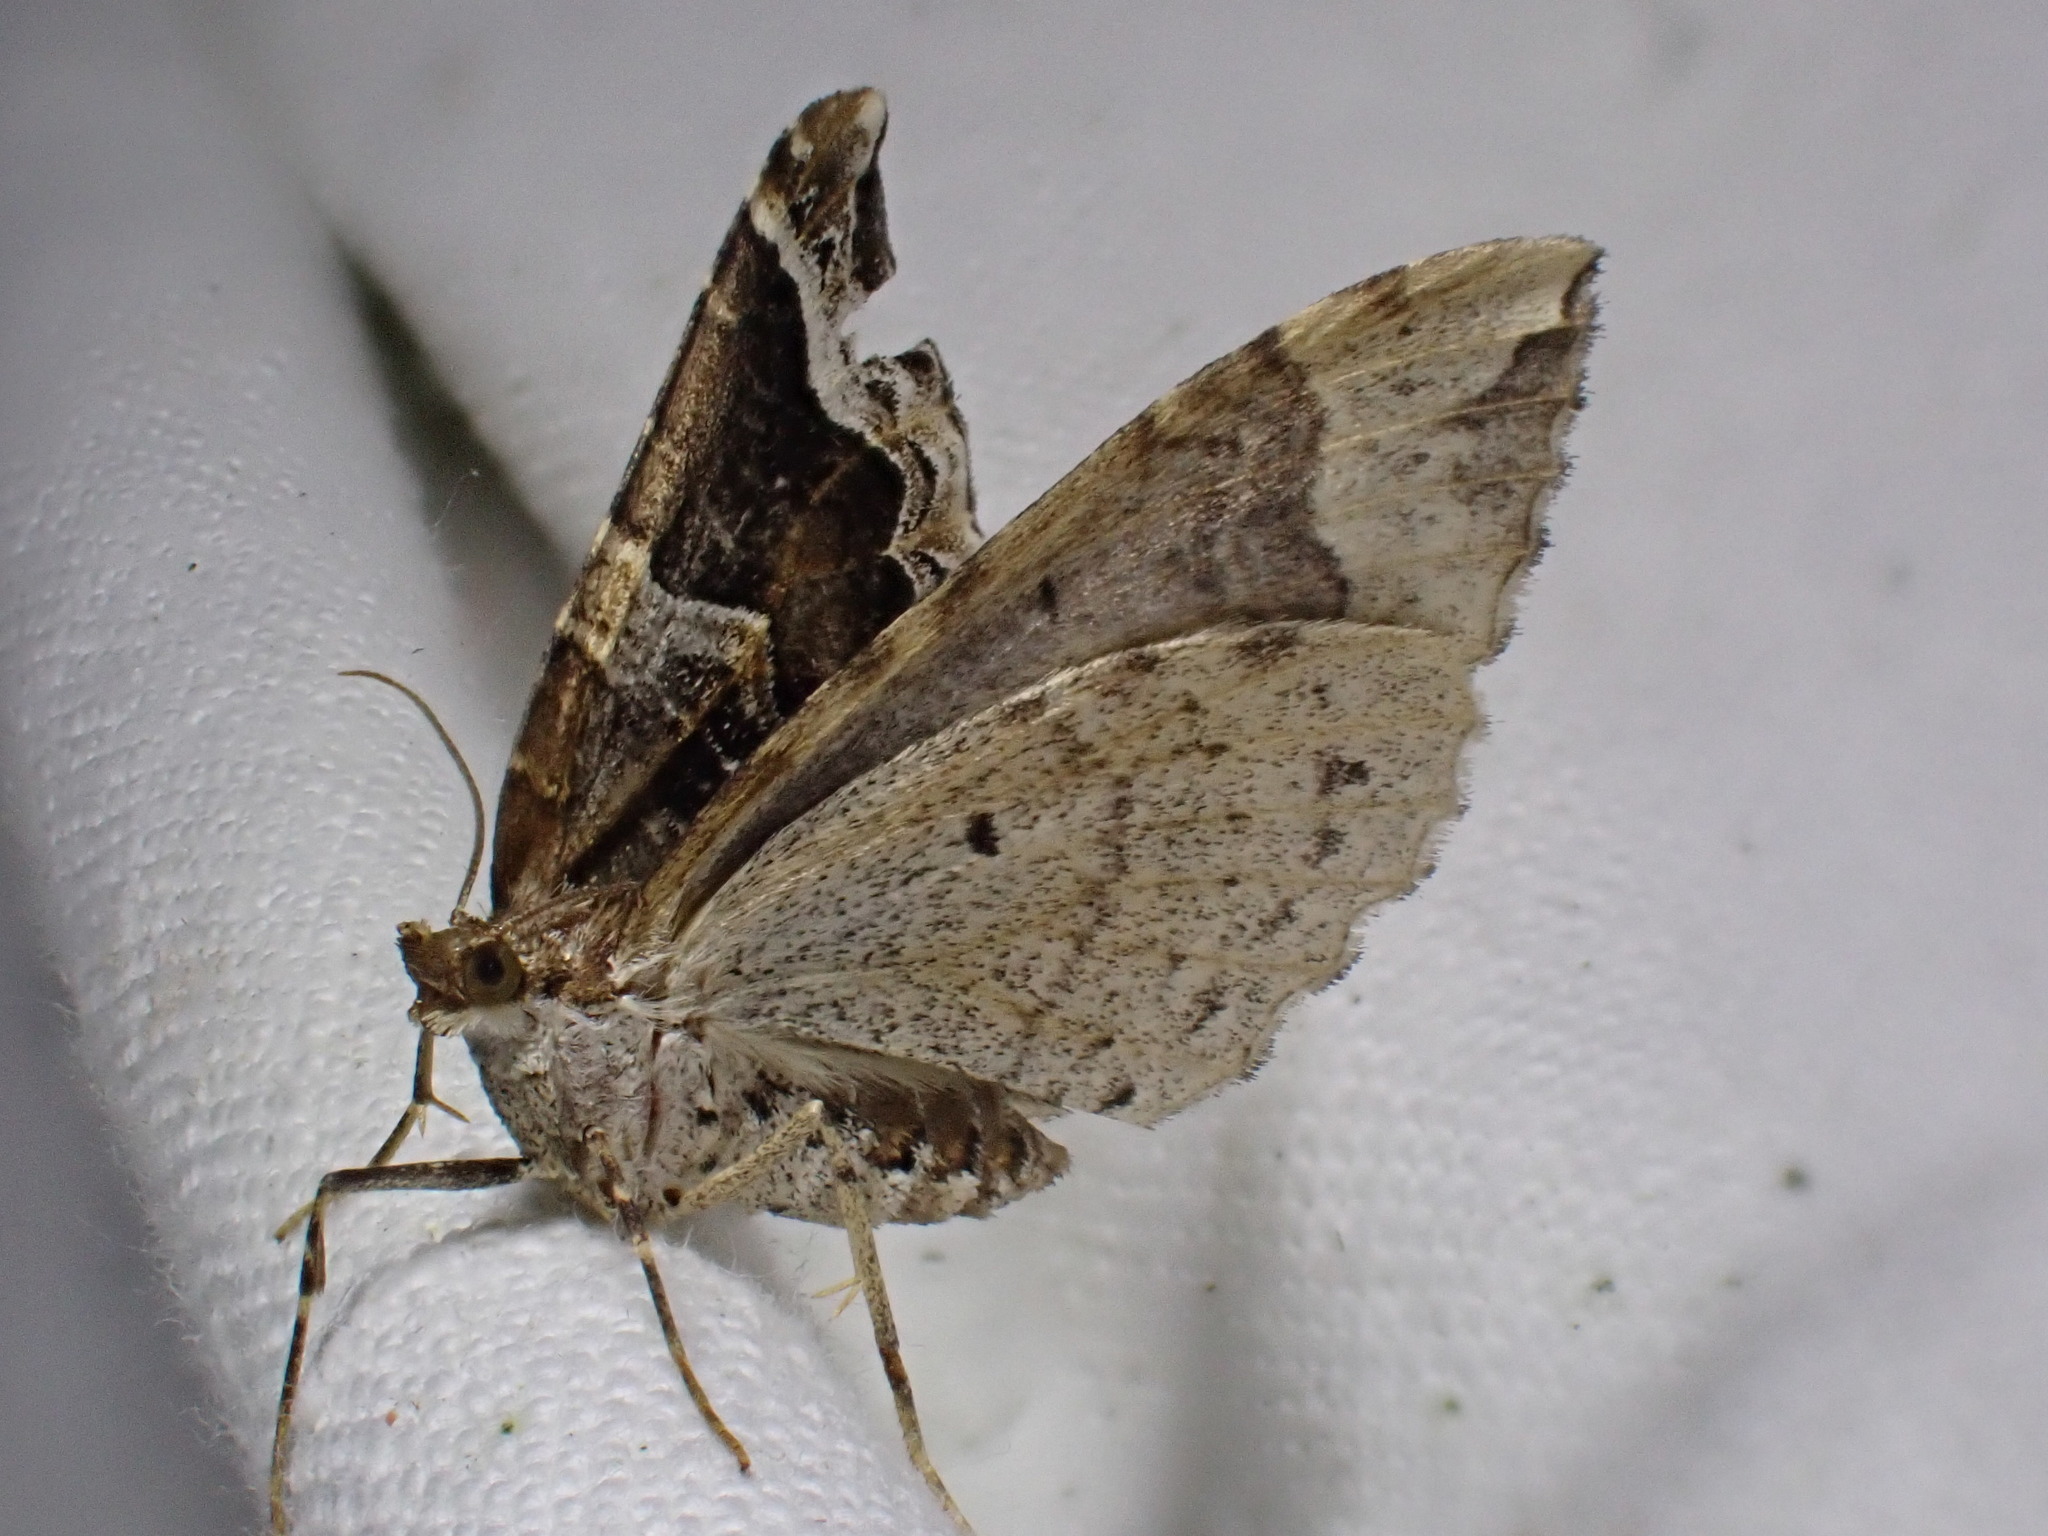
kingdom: Animalia
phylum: Arthropoda
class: Insecta
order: Lepidoptera
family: Geometridae
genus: Eulithis
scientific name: Eulithis prunata
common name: Phoenix
